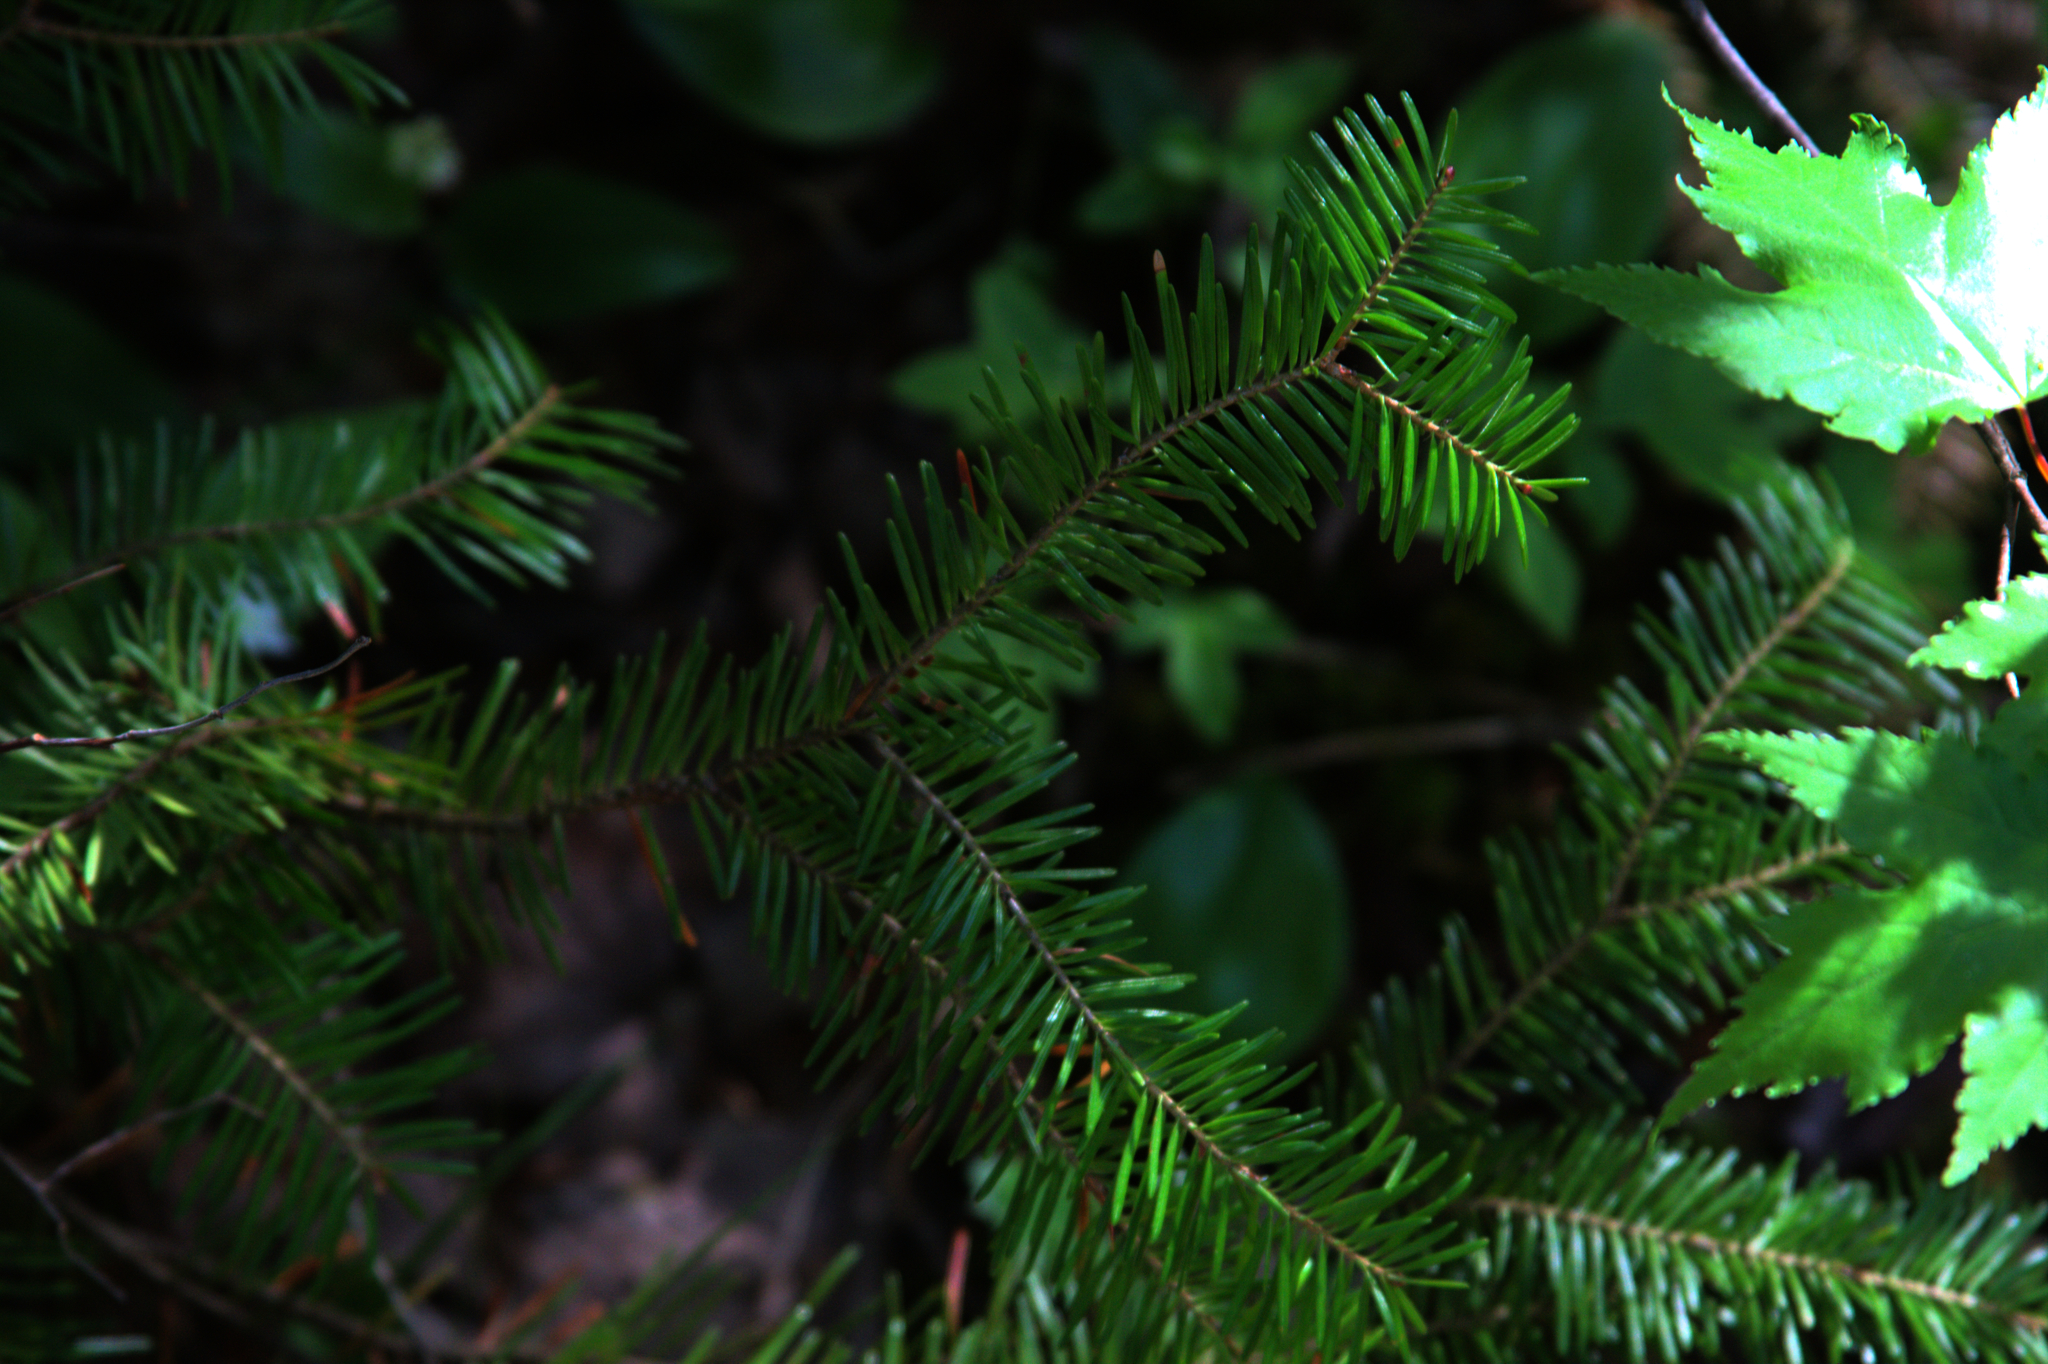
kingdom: Plantae
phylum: Tracheophyta
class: Pinopsida
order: Pinales
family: Pinaceae
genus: Abies
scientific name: Abies balsamea
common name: Balsam fir
